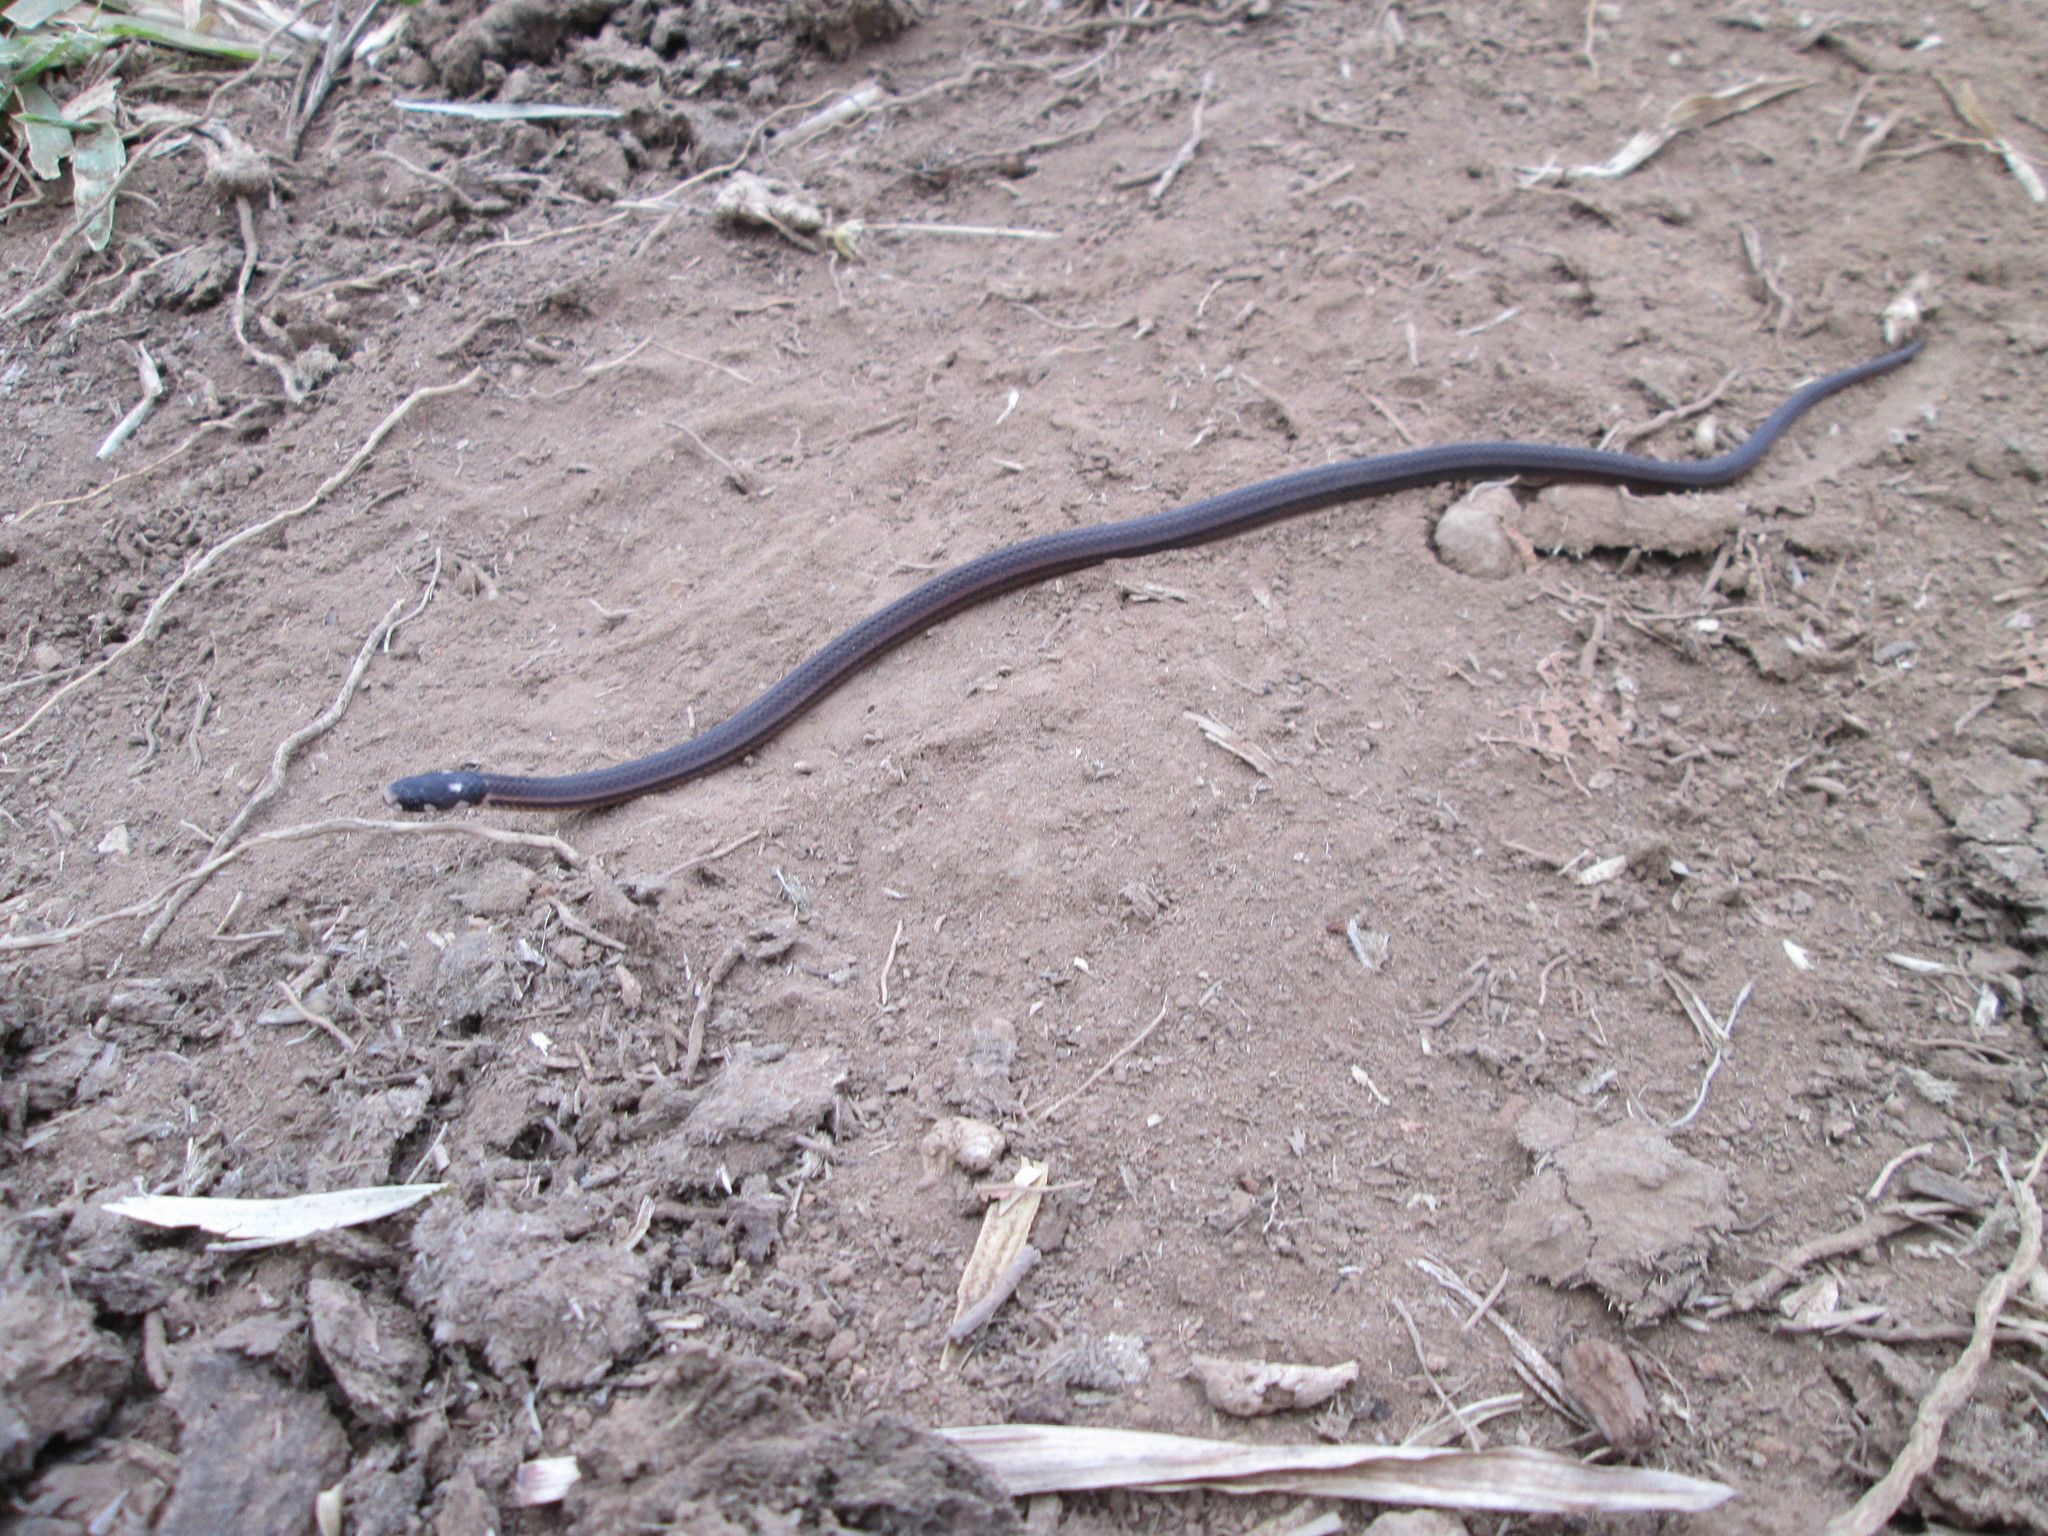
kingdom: Animalia
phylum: Chordata
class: Squamata
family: Colubridae
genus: Tantilla
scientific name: Tantilla melanocephala
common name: Black-headed snake
